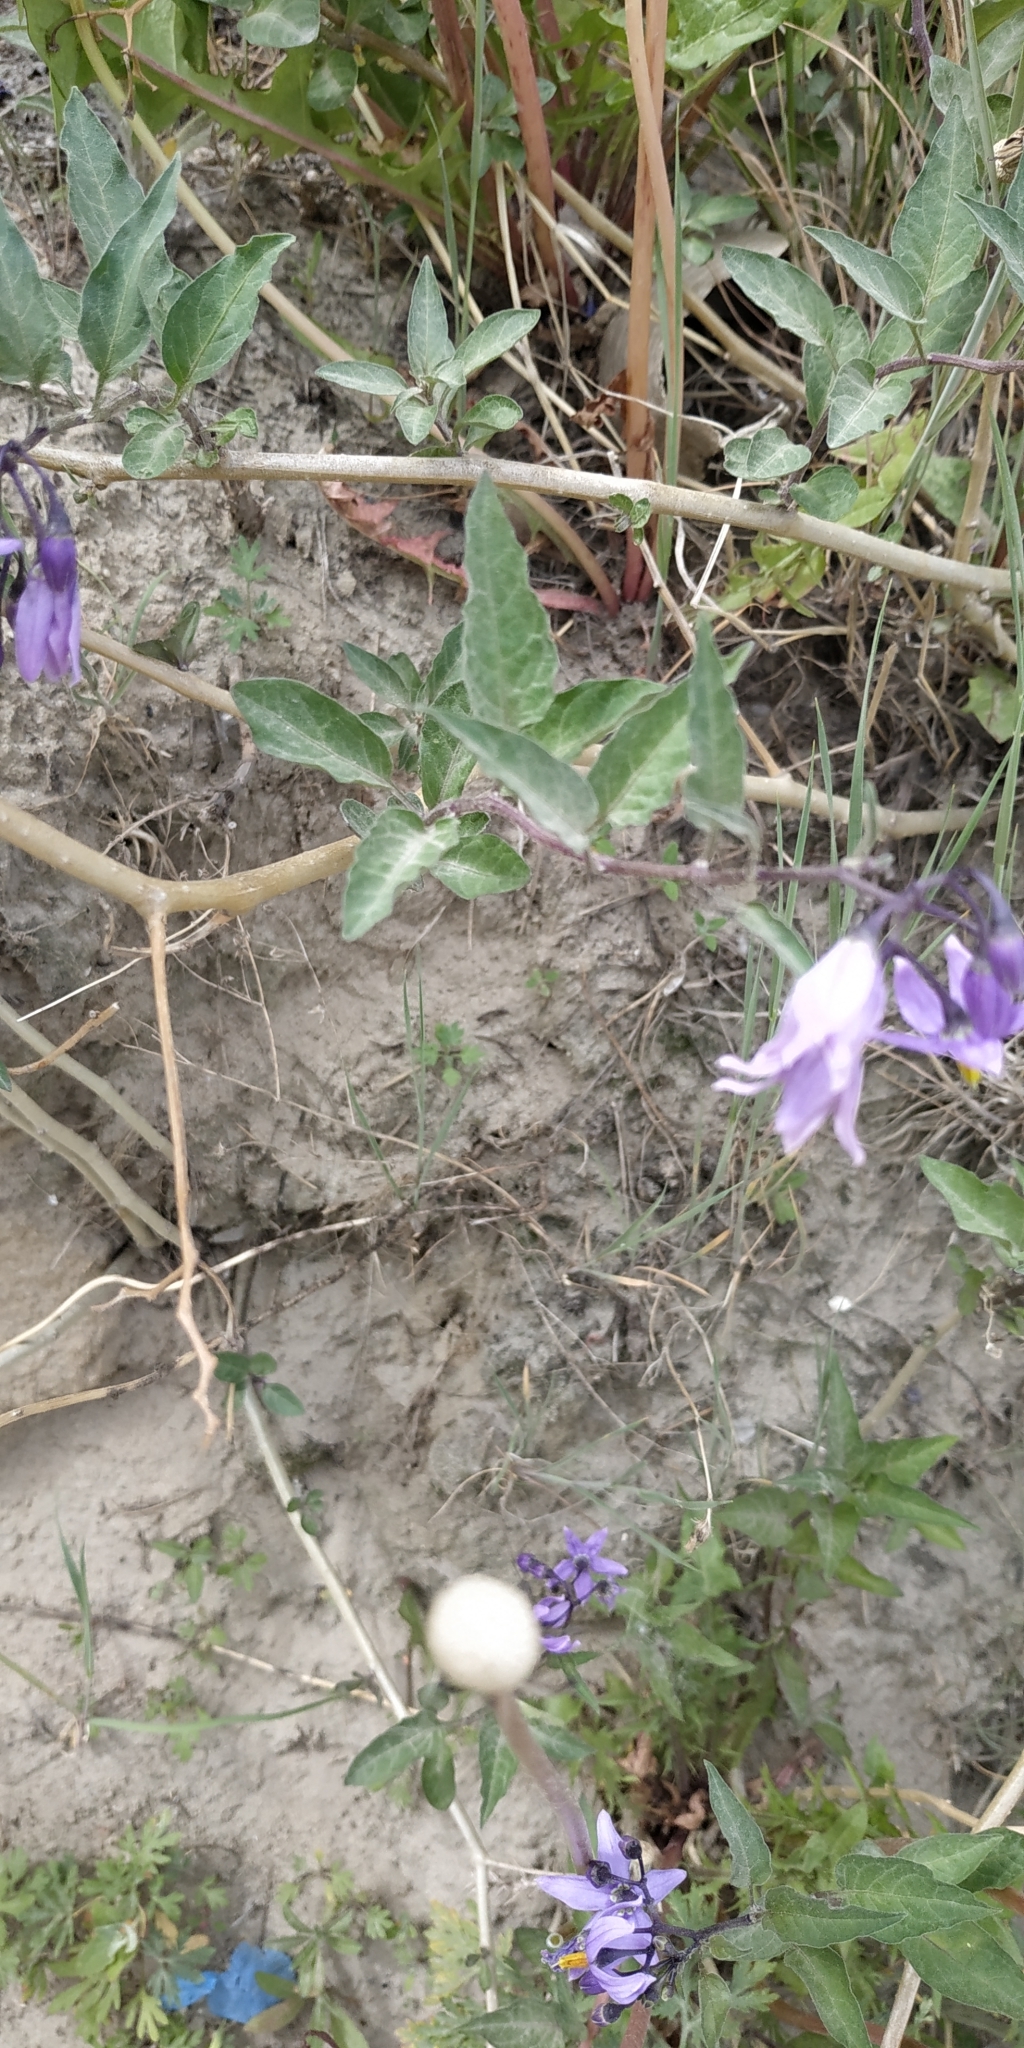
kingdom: Plantae
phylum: Tracheophyta
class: Magnoliopsida
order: Solanales
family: Solanaceae
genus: Solanum
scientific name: Solanum dulcamara
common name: Climbing nightshade
